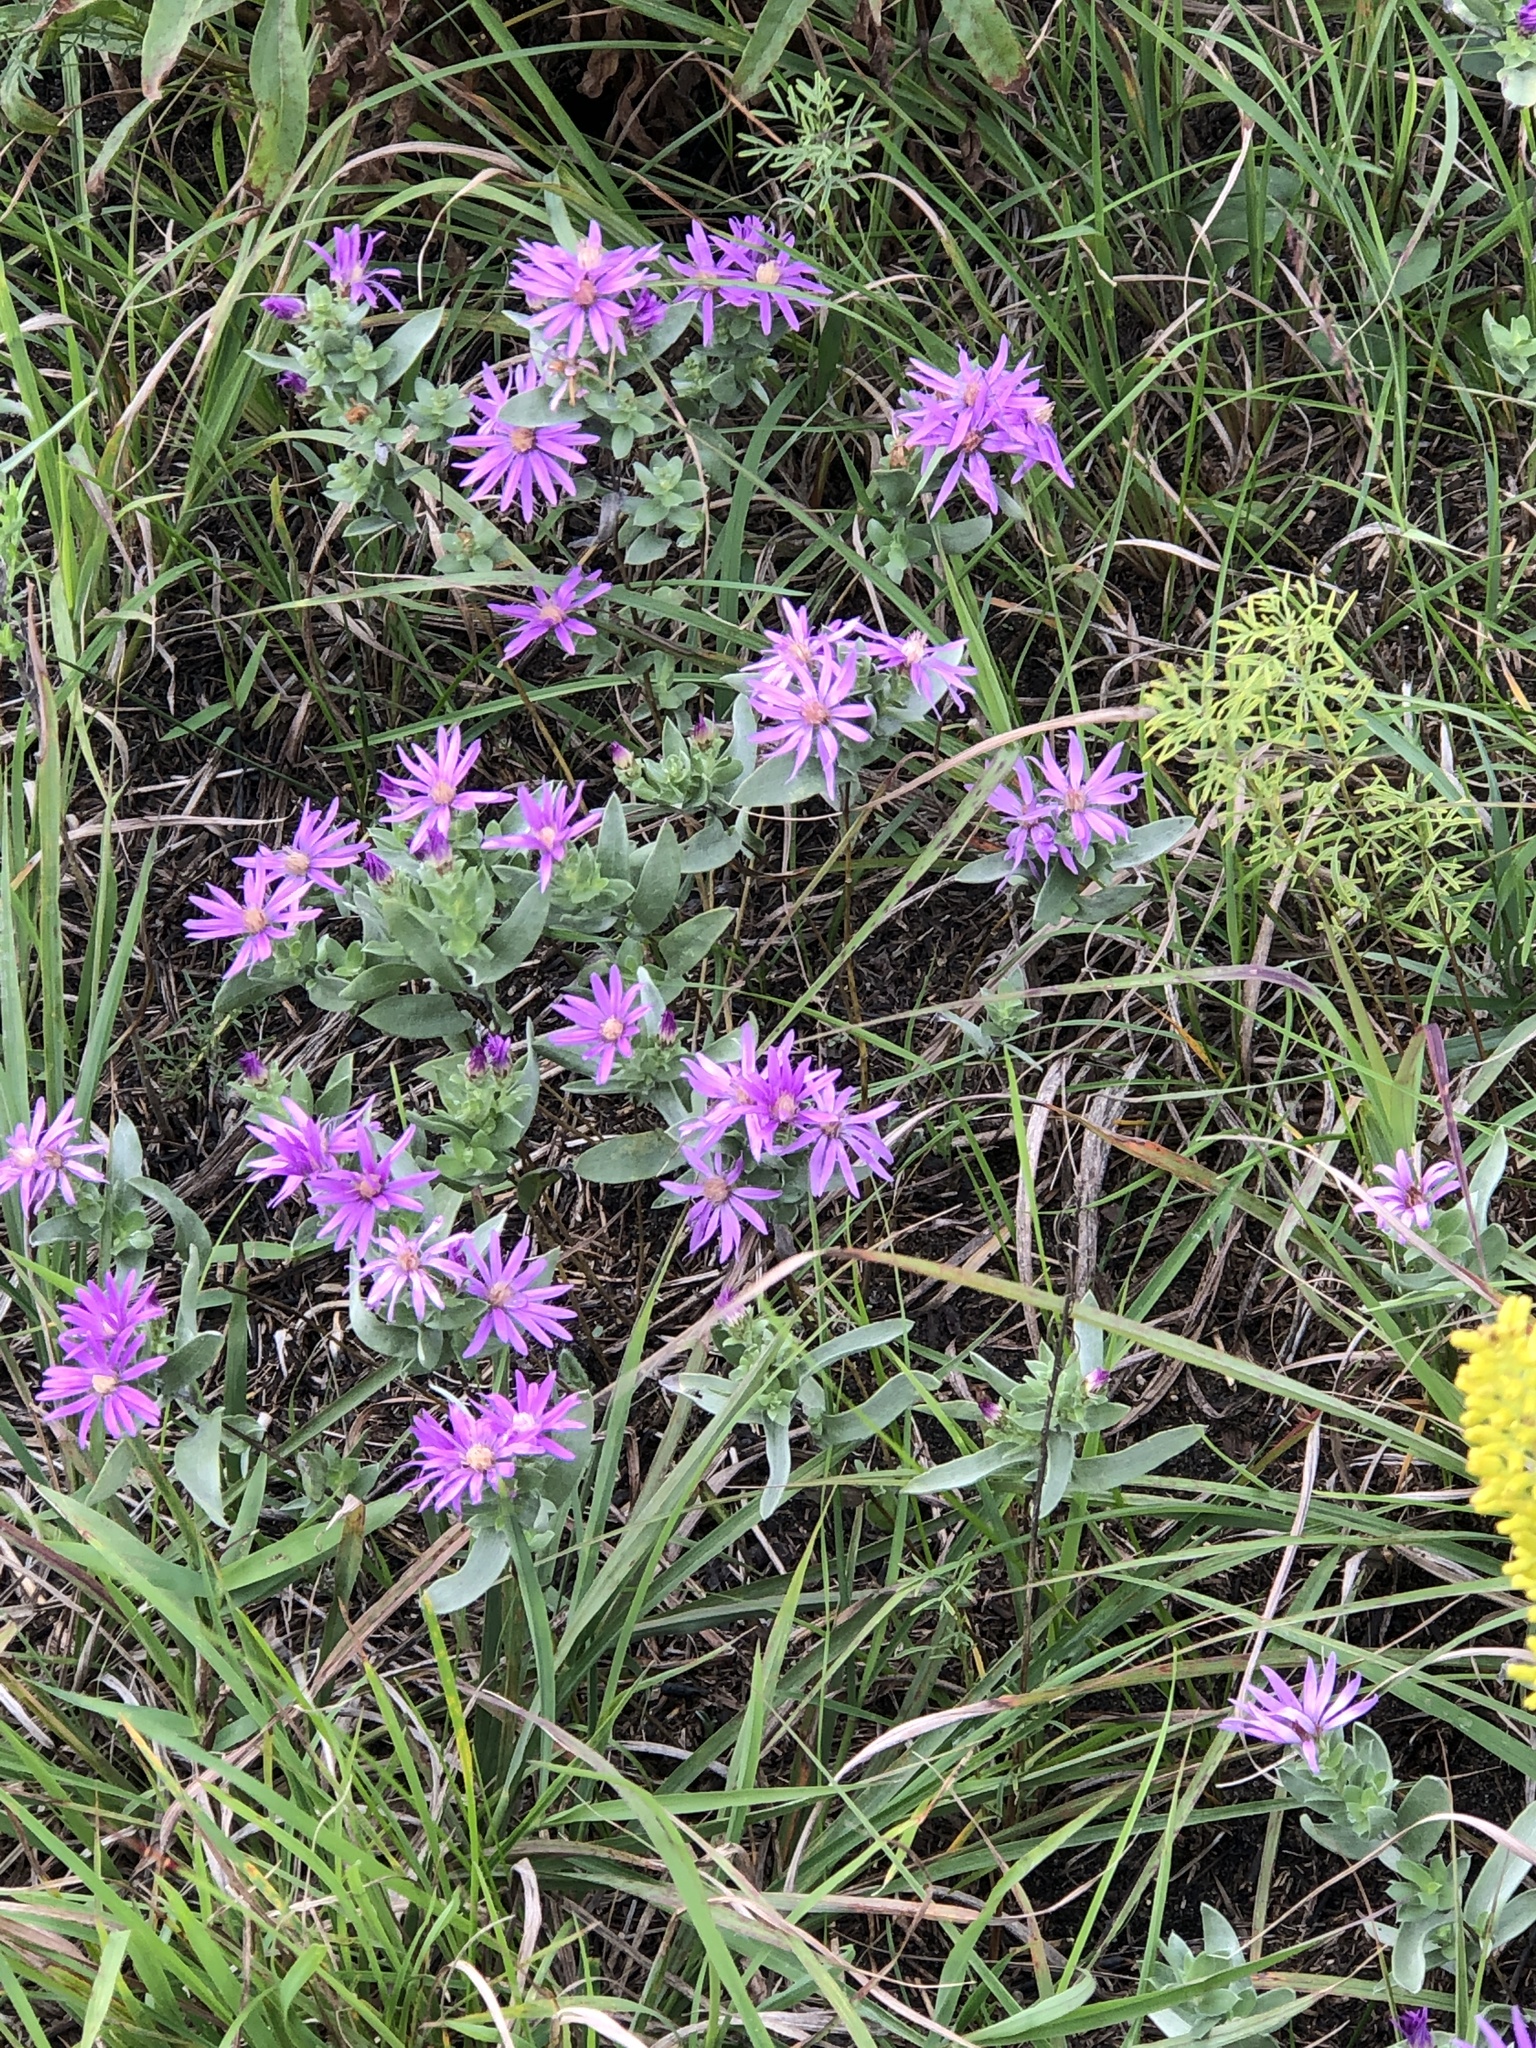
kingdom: Plantae
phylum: Tracheophyta
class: Magnoliopsida
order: Asterales
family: Asteraceae
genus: Symphyotrichum
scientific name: Symphyotrichum sericeum
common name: Silky aster
